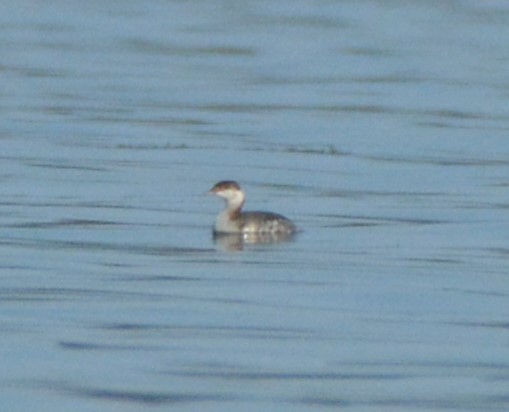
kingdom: Animalia
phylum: Chordata
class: Aves
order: Podicipediformes
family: Podicipedidae
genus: Podiceps
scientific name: Podiceps auritus
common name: Horned grebe
